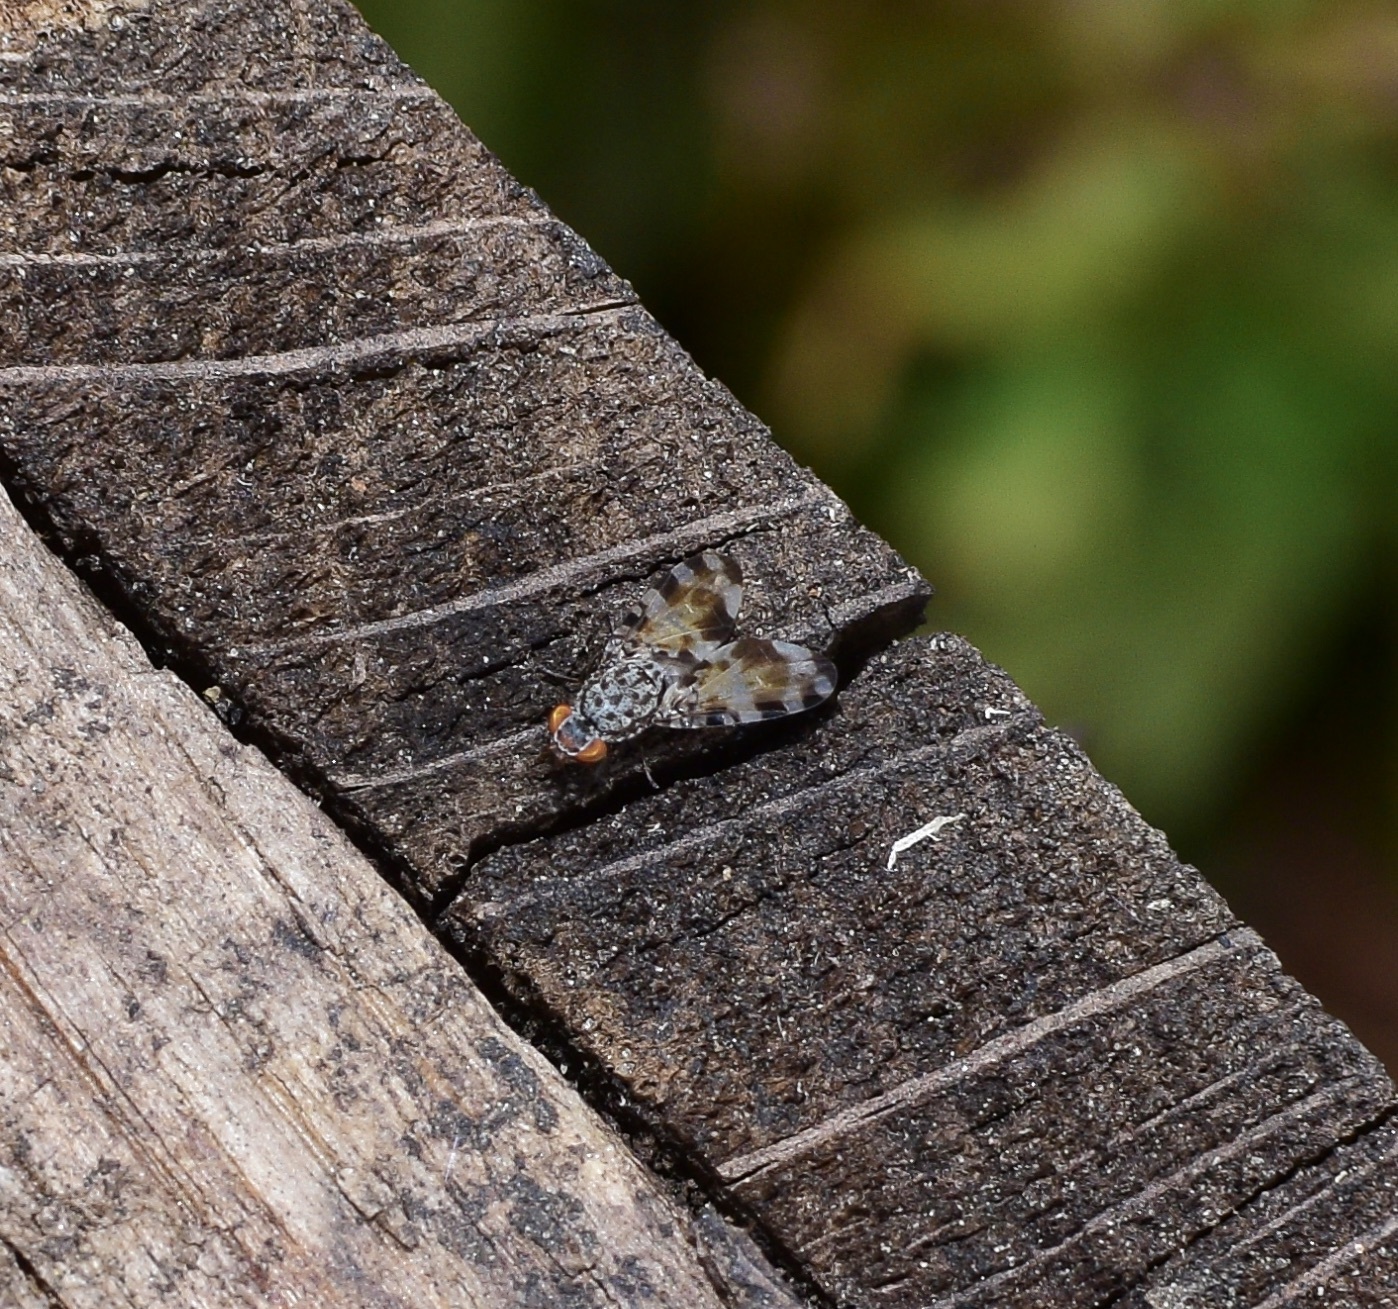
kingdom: Animalia
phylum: Arthropoda
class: Insecta
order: Diptera
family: Ulidiidae
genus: Pseudotephritis
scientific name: Pseudotephritis vau
